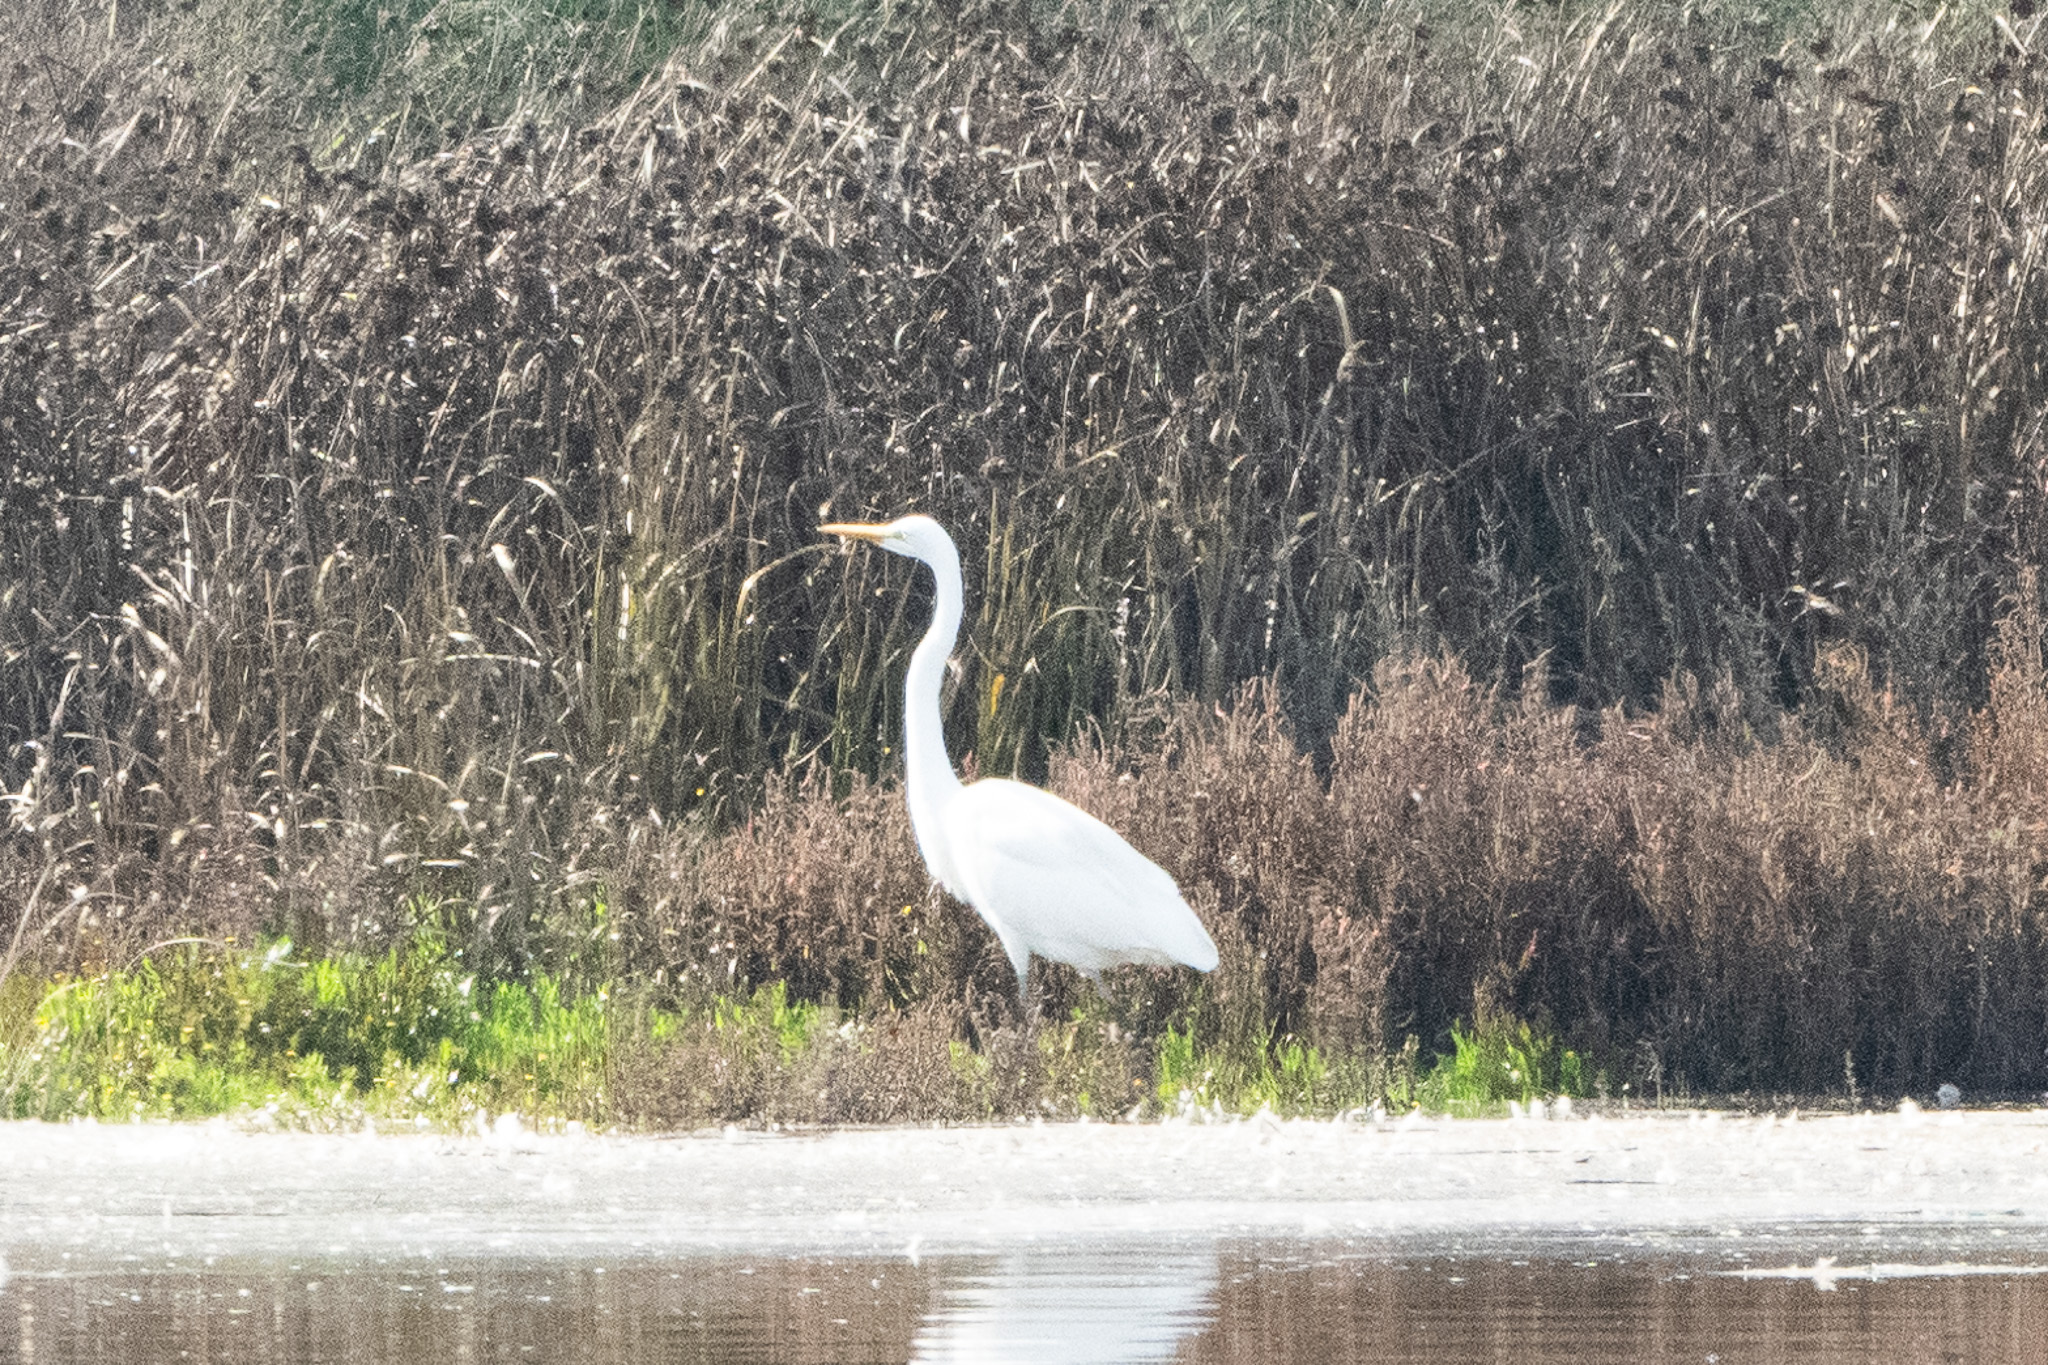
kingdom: Animalia
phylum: Chordata
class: Aves
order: Pelecaniformes
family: Ardeidae
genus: Ardea
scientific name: Ardea alba
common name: Great egret
